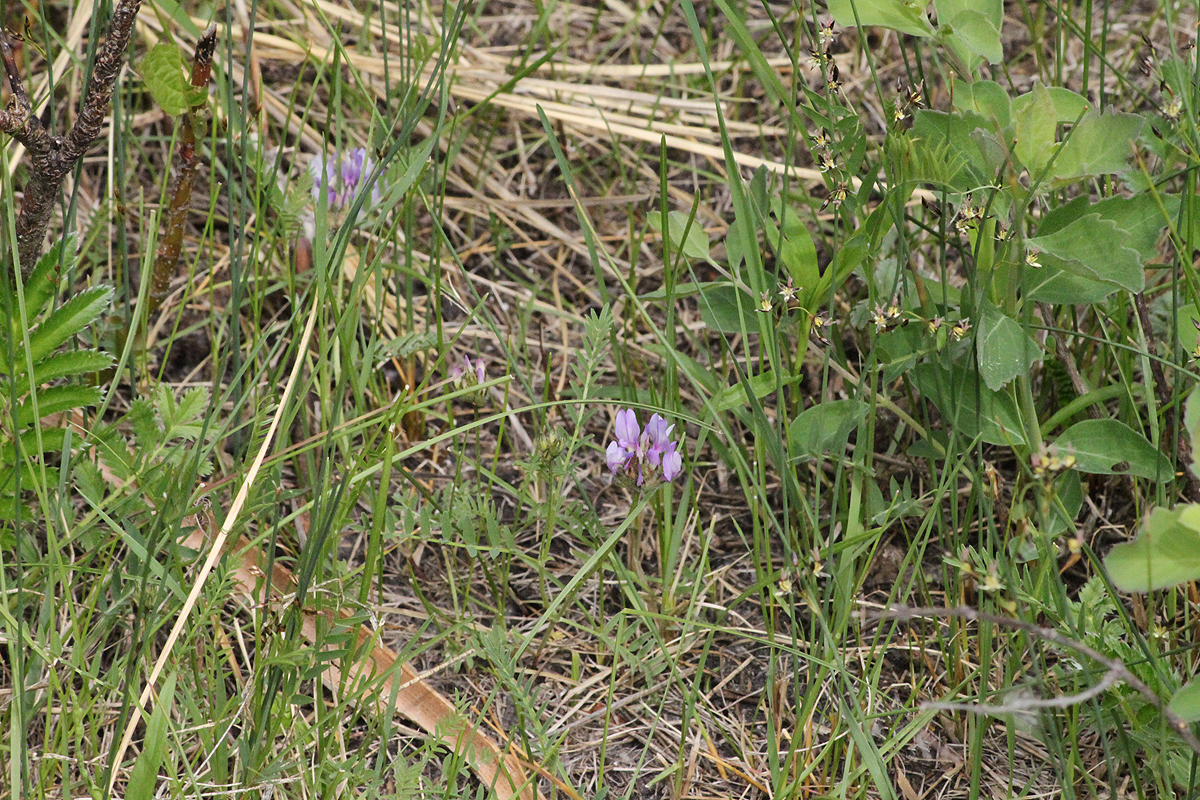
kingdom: Plantae
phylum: Tracheophyta
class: Magnoliopsida
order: Fabales
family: Fabaceae
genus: Astragalus
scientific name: Astragalus agrestis
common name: Field milk-vetch
